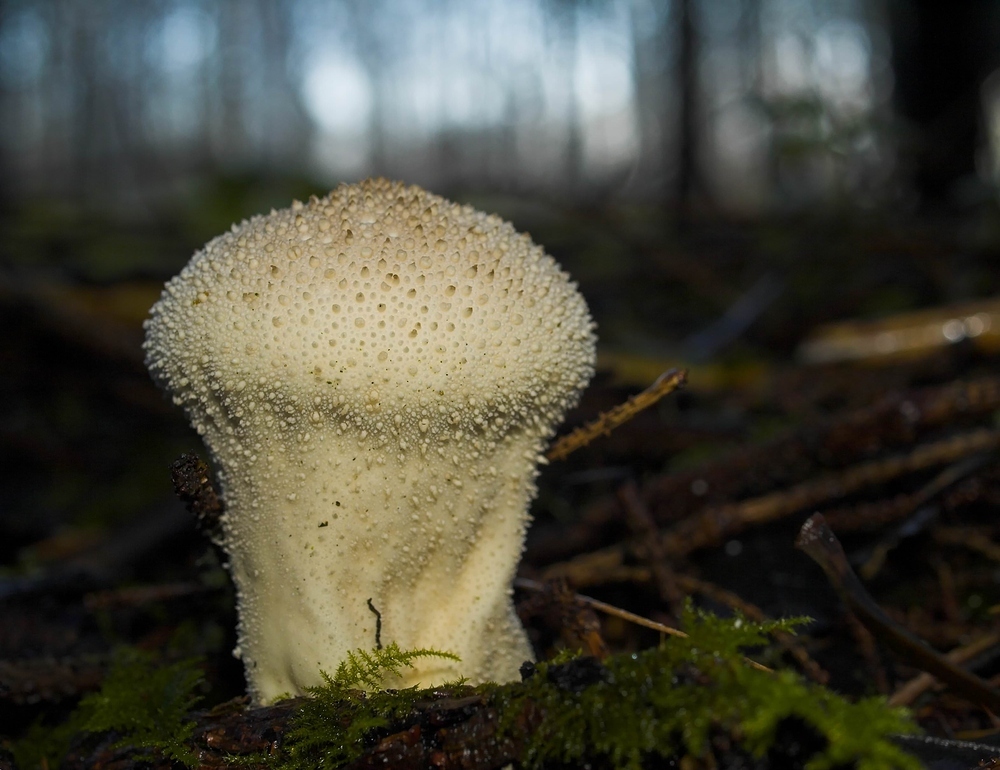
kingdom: Fungi
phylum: Basidiomycota
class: Agaricomycetes
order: Agaricales
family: Lycoperdaceae
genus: Lycoperdon
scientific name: Lycoperdon perlatum
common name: Common puffball
